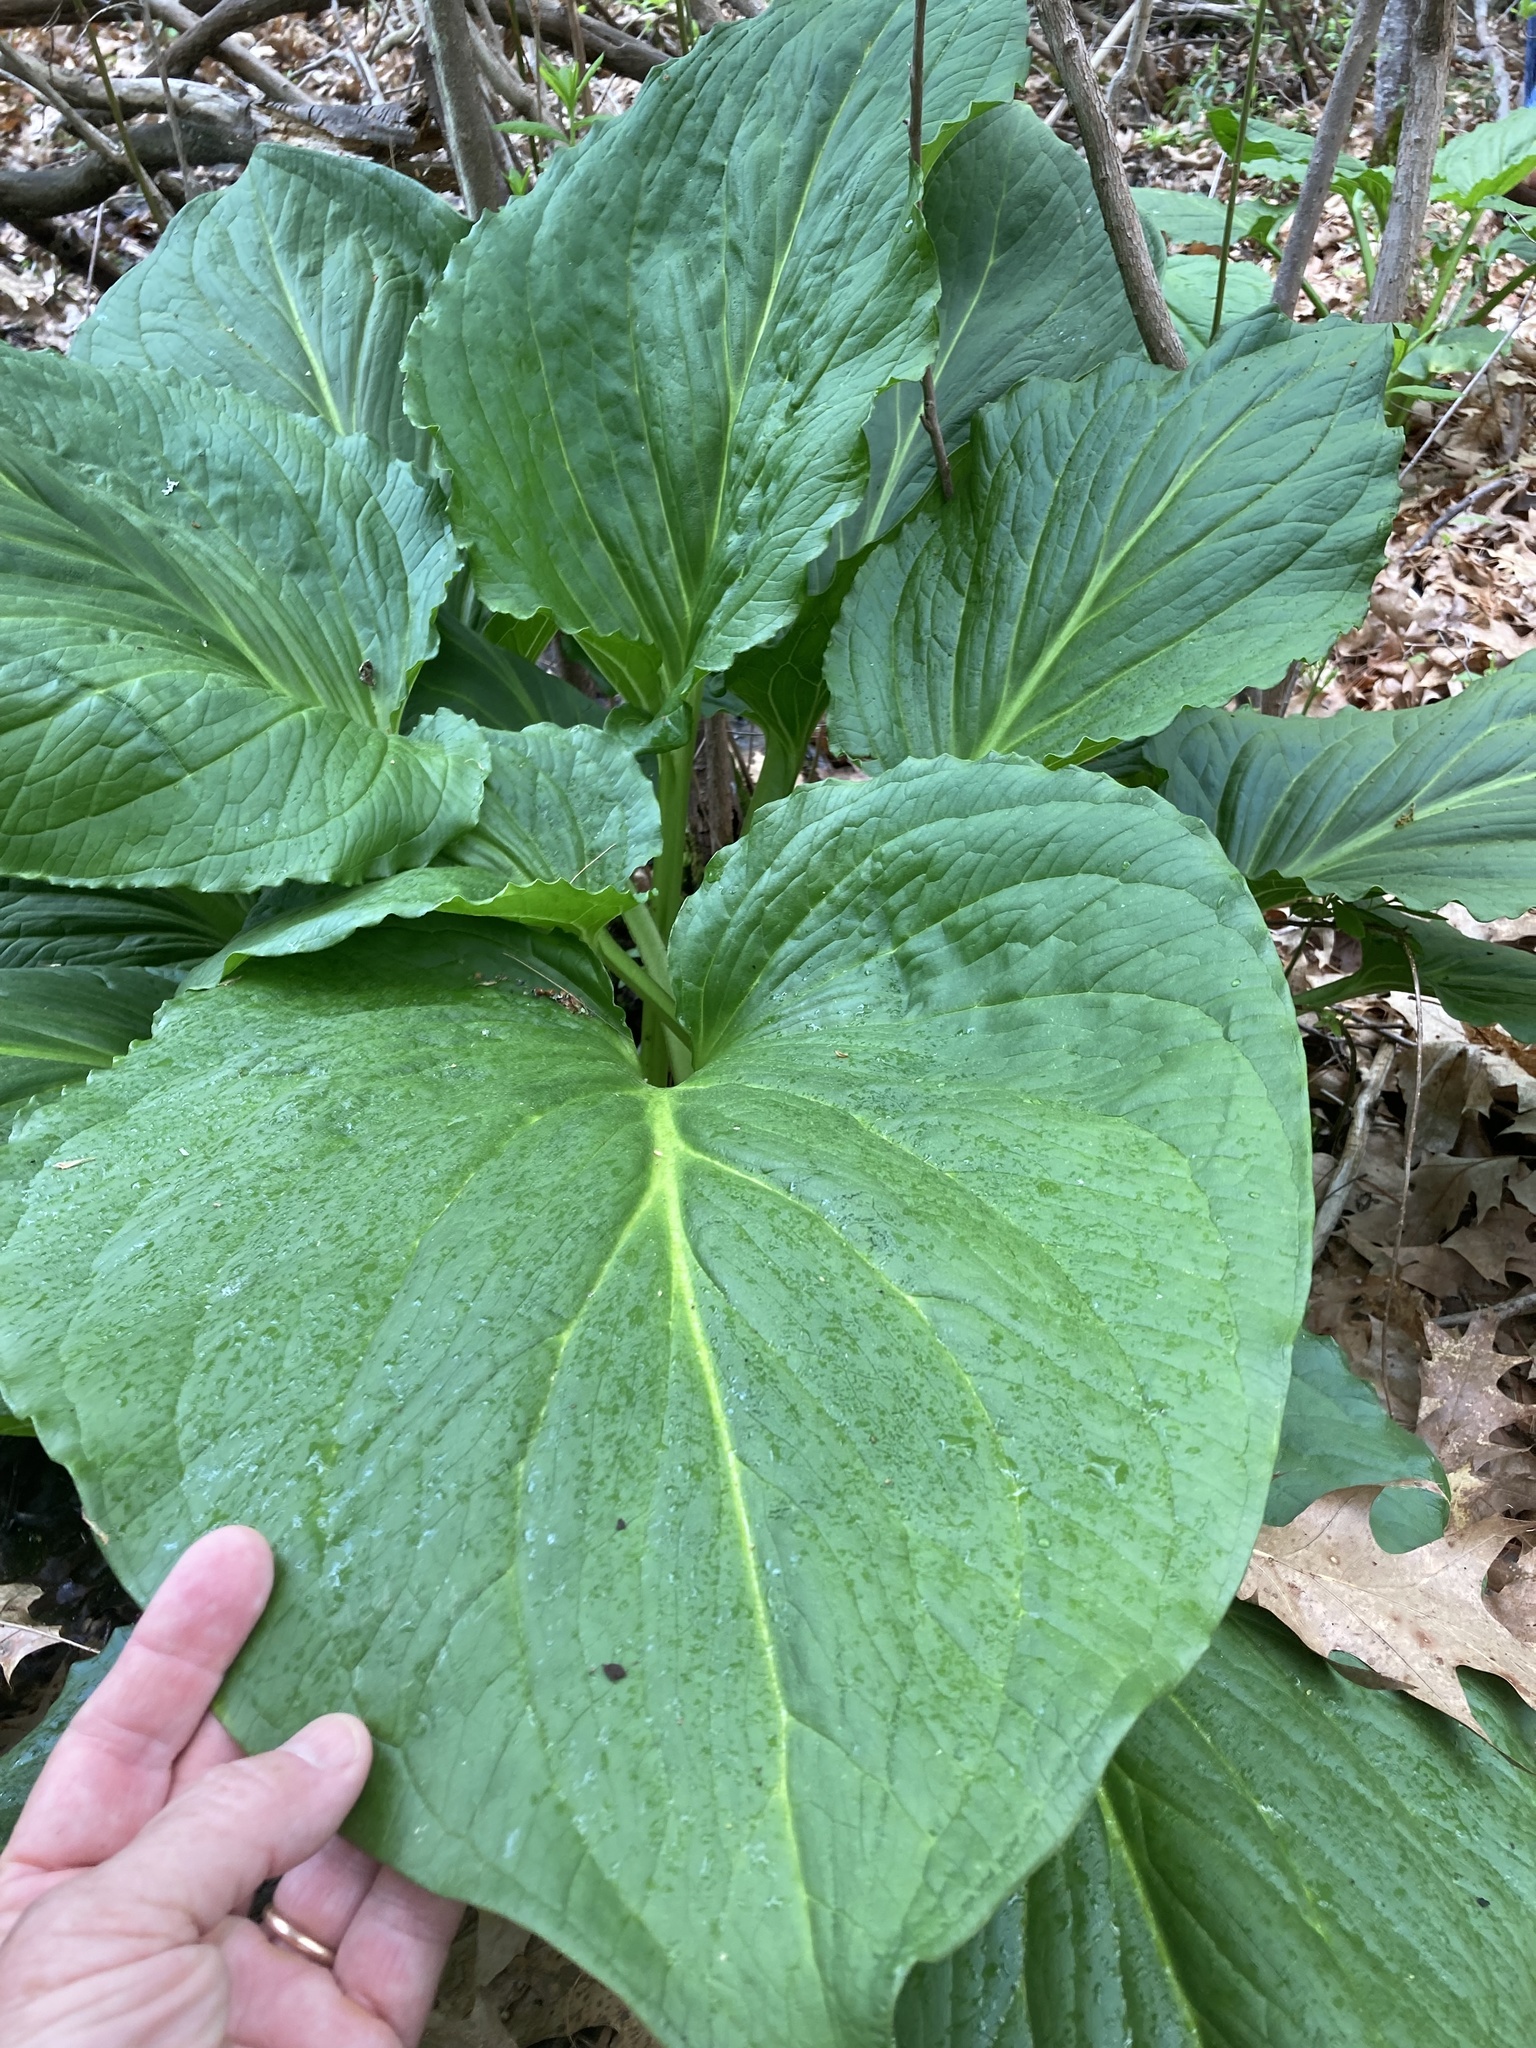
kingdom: Plantae
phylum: Tracheophyta
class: Liliopsida
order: Alismatales
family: Araceae
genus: Symplocarpus
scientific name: Symplocarpus foetidus
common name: Eastern skunk cabbage
